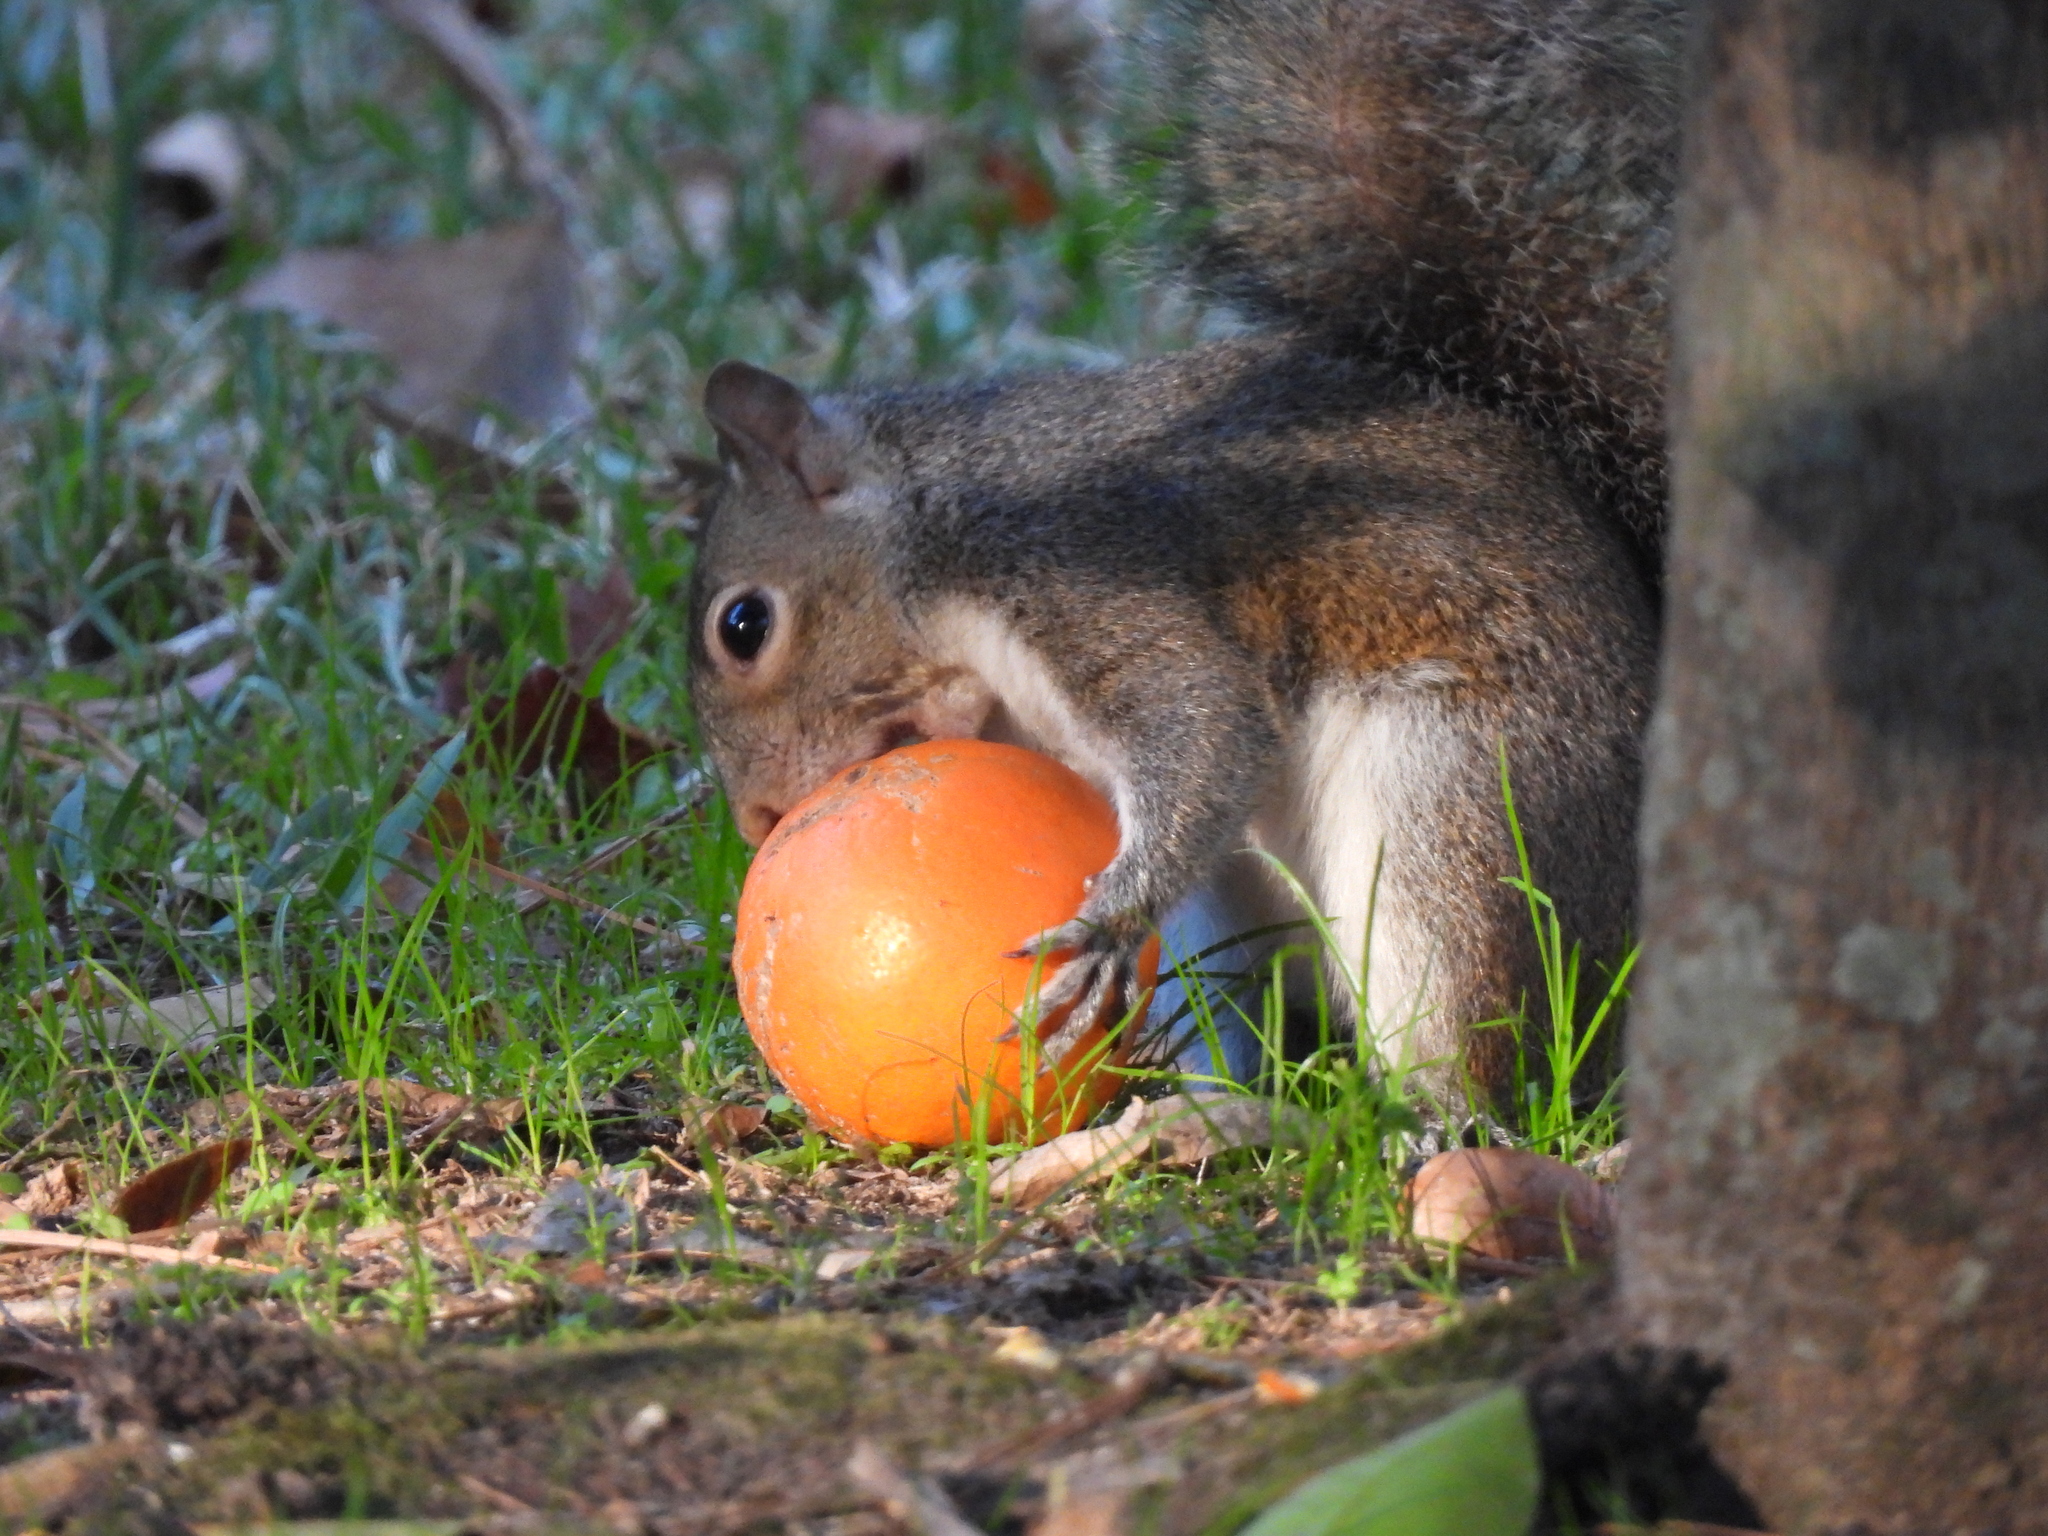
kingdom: Animalia
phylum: Chordata
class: Mammalia
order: Rodentia
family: Sciuridae
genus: Sciurus
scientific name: Sciurus carolinensis
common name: Eastern gray squirrel
